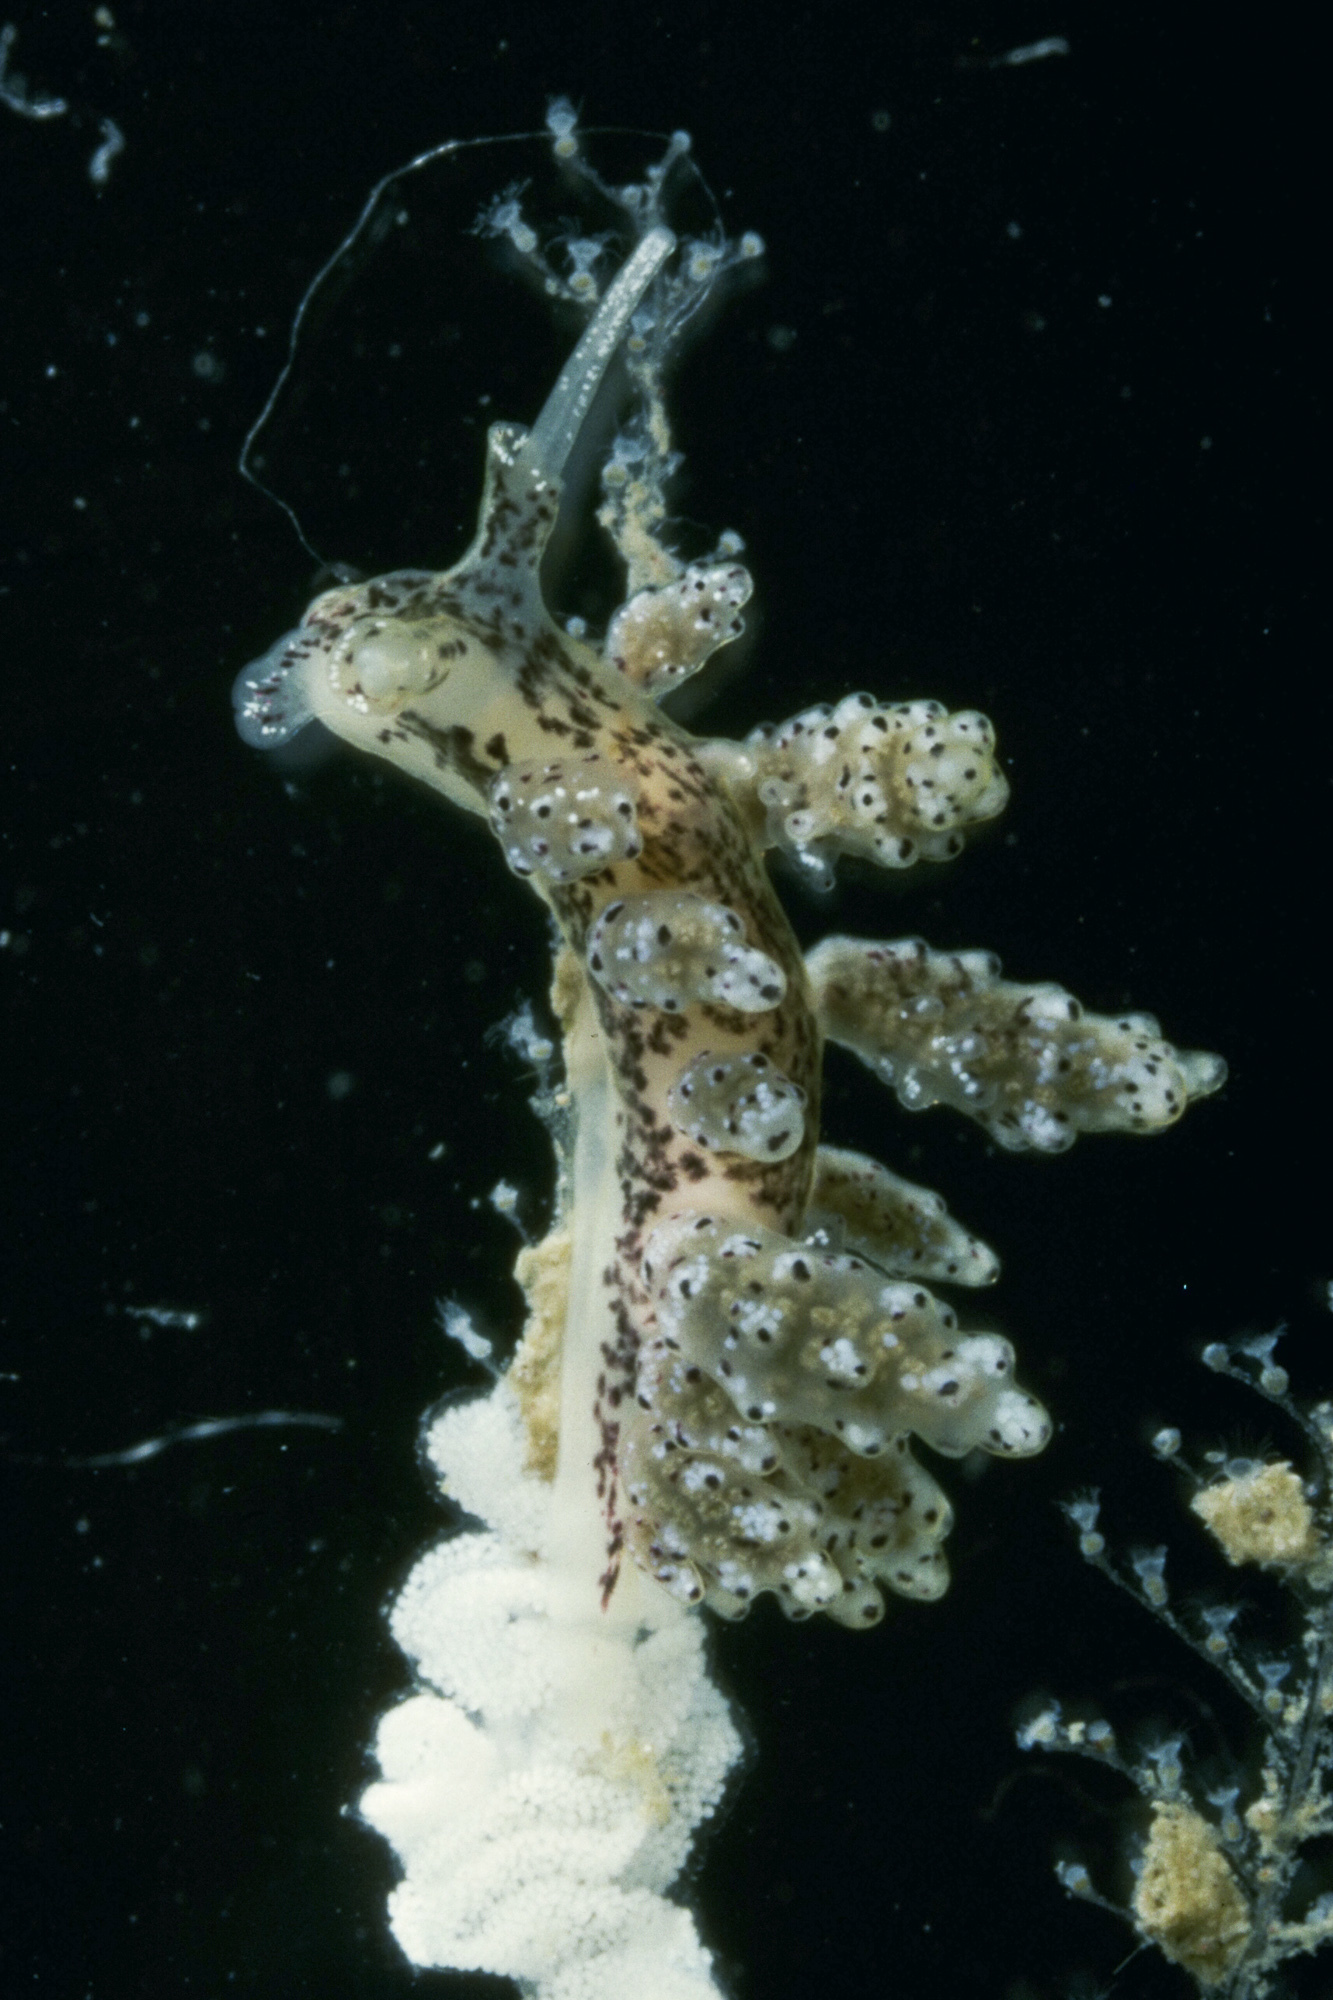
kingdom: Animalia
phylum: Mollusca
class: Gastropoda
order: Nudibranchia
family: Dotidae
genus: Doto
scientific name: Doto dunnei
